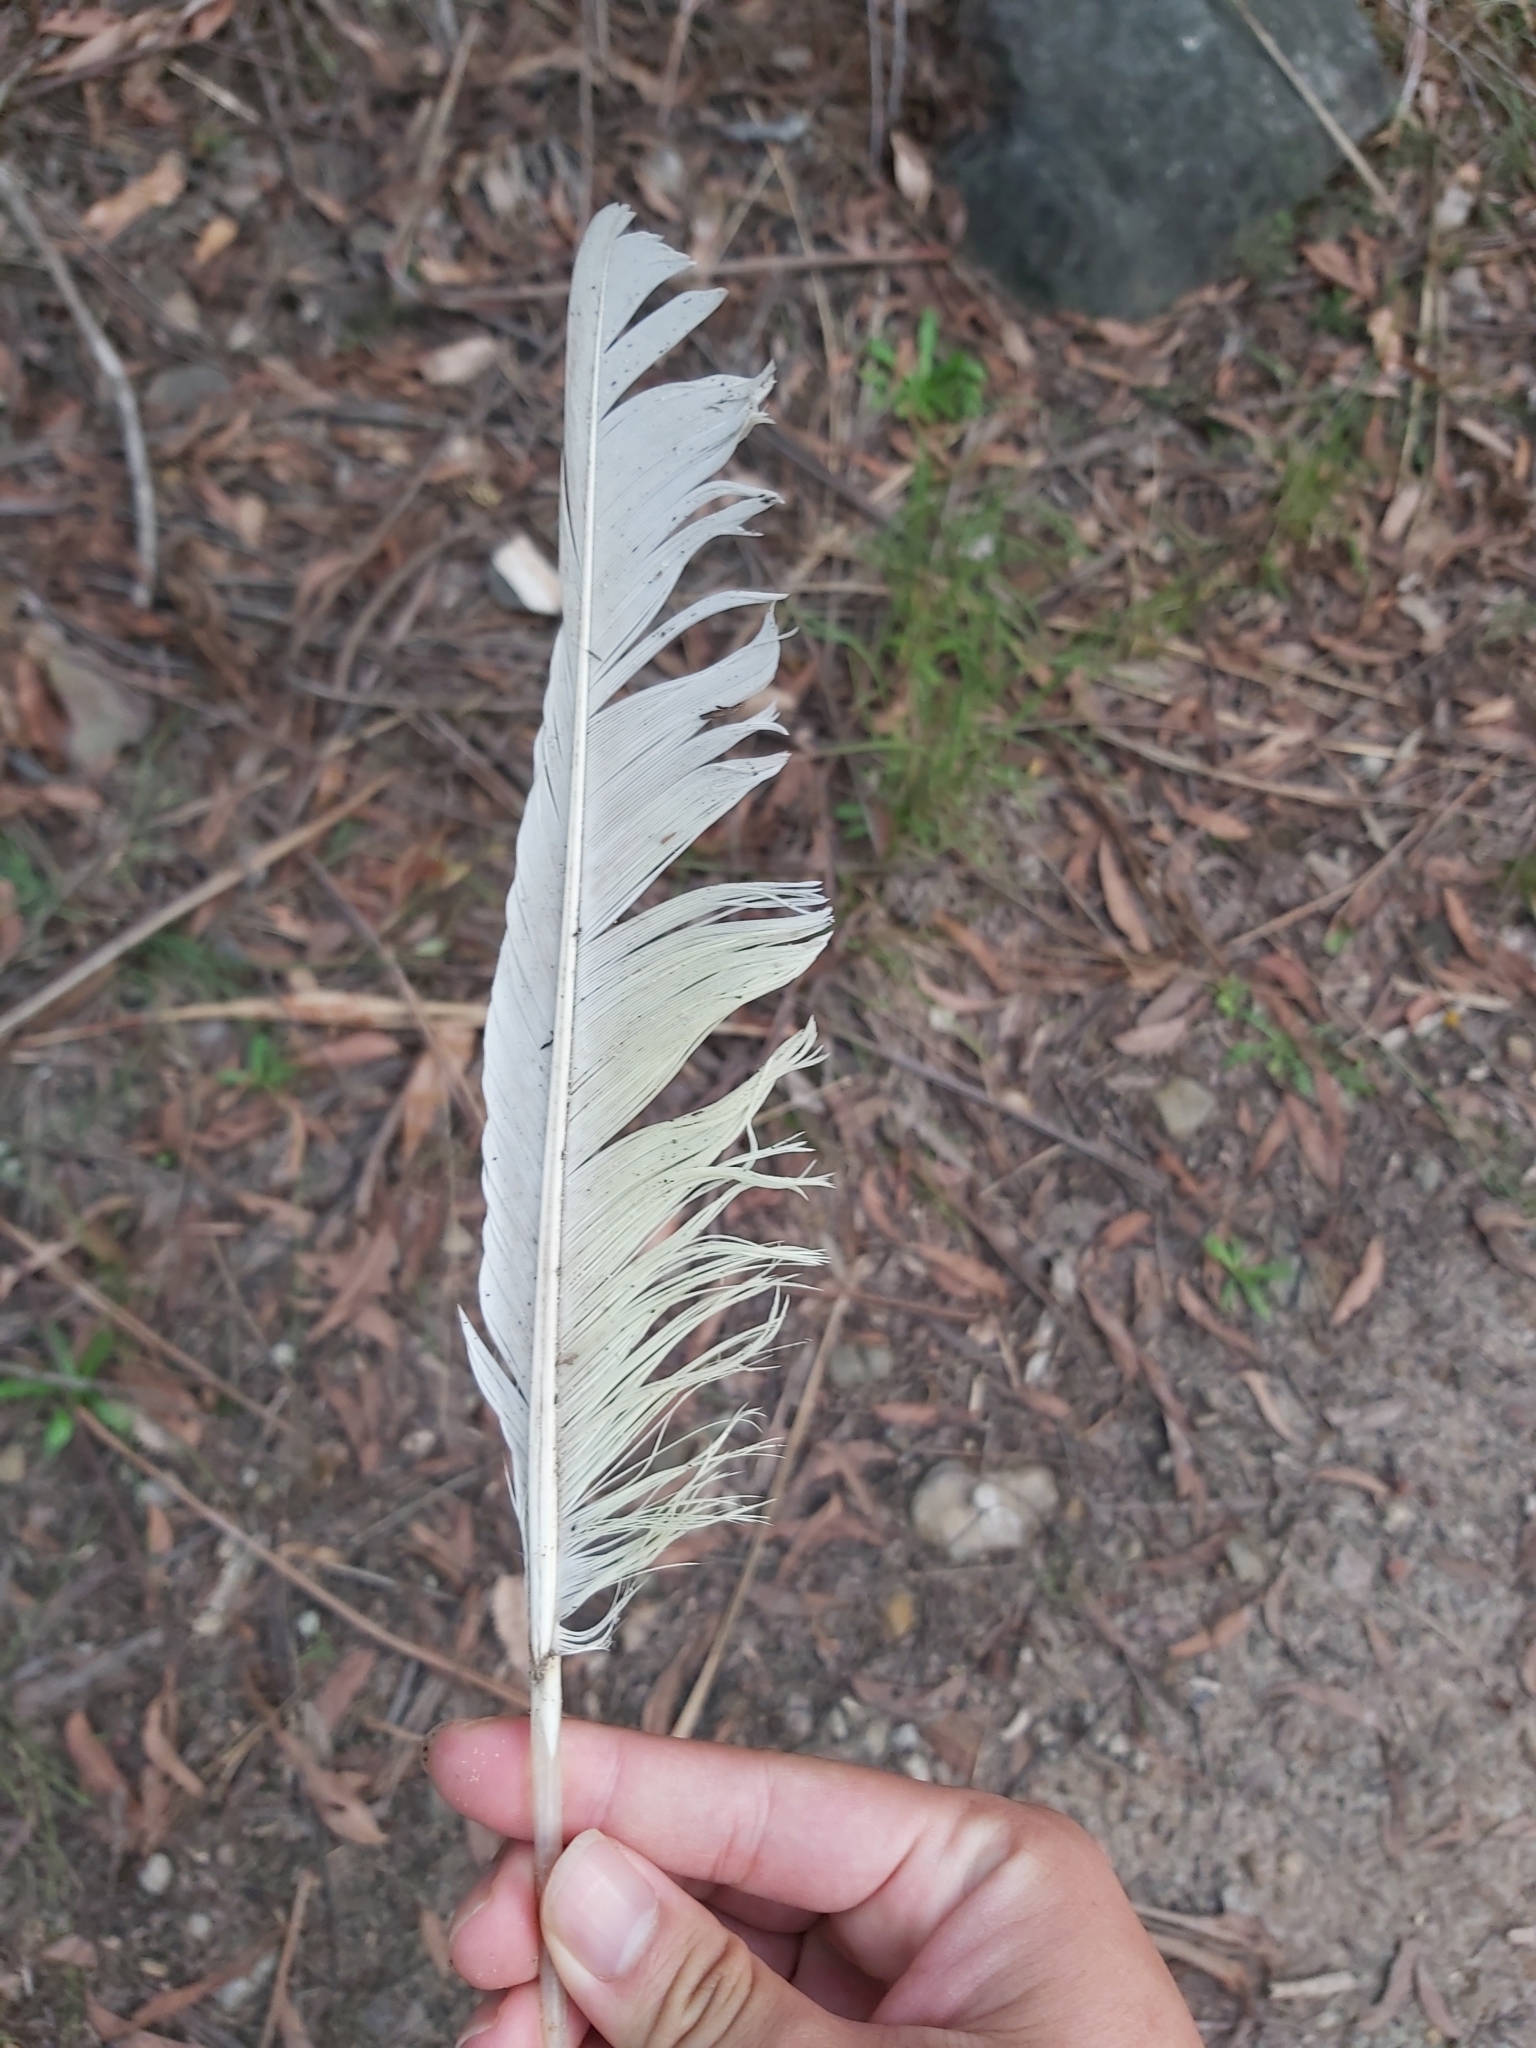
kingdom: Animalia
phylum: Chordata
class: Aves
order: Psittaciformes
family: Psittacidae
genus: Cacatua
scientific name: Cacatua galerita
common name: Sulphur-crested cockatoo
